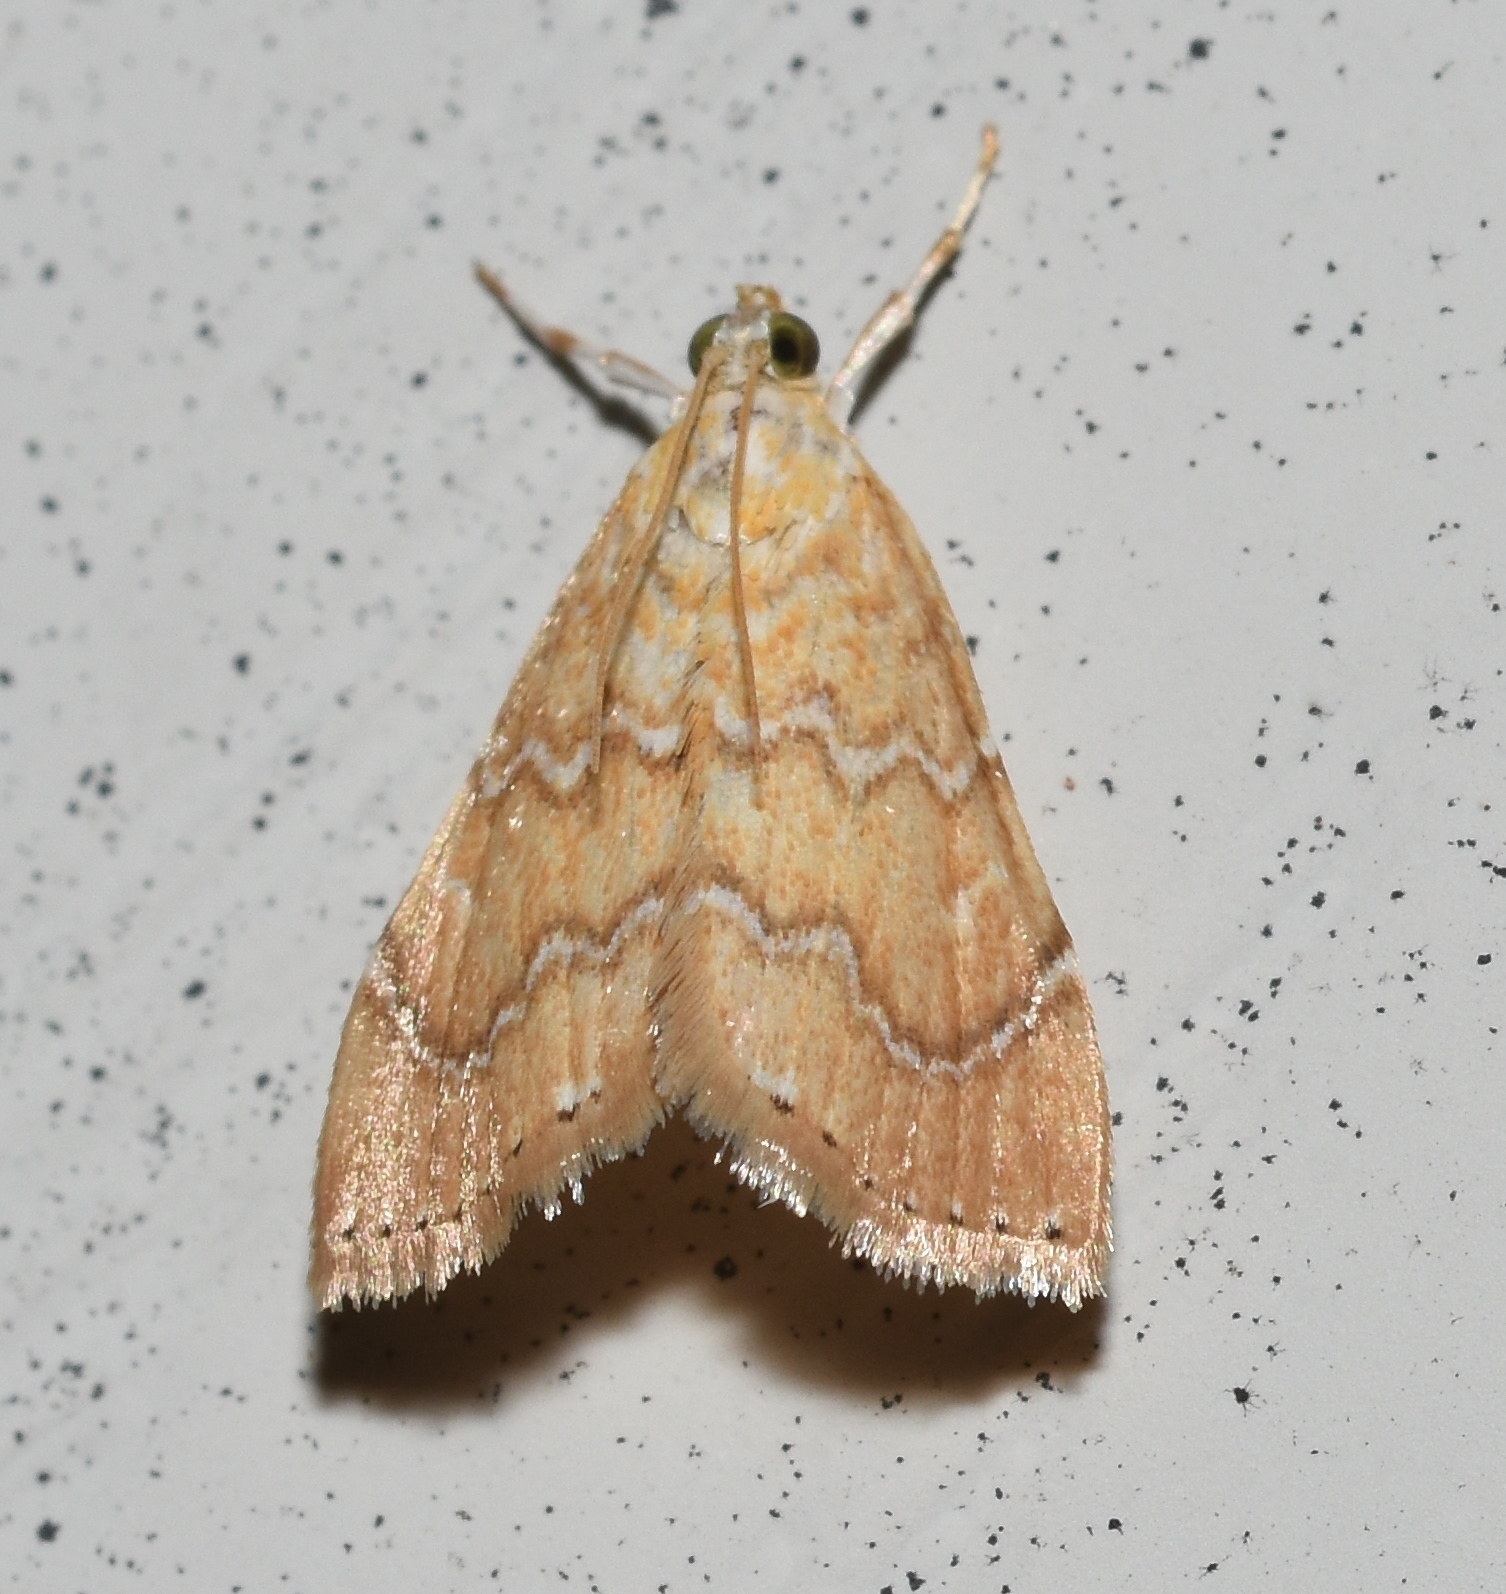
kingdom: Animalia
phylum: Arthropoda
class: Insecta
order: Lepidoptera
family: Crambidae
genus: Glaphyria
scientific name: Glaphyria sesquistrialis
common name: White-roped glaphyria
